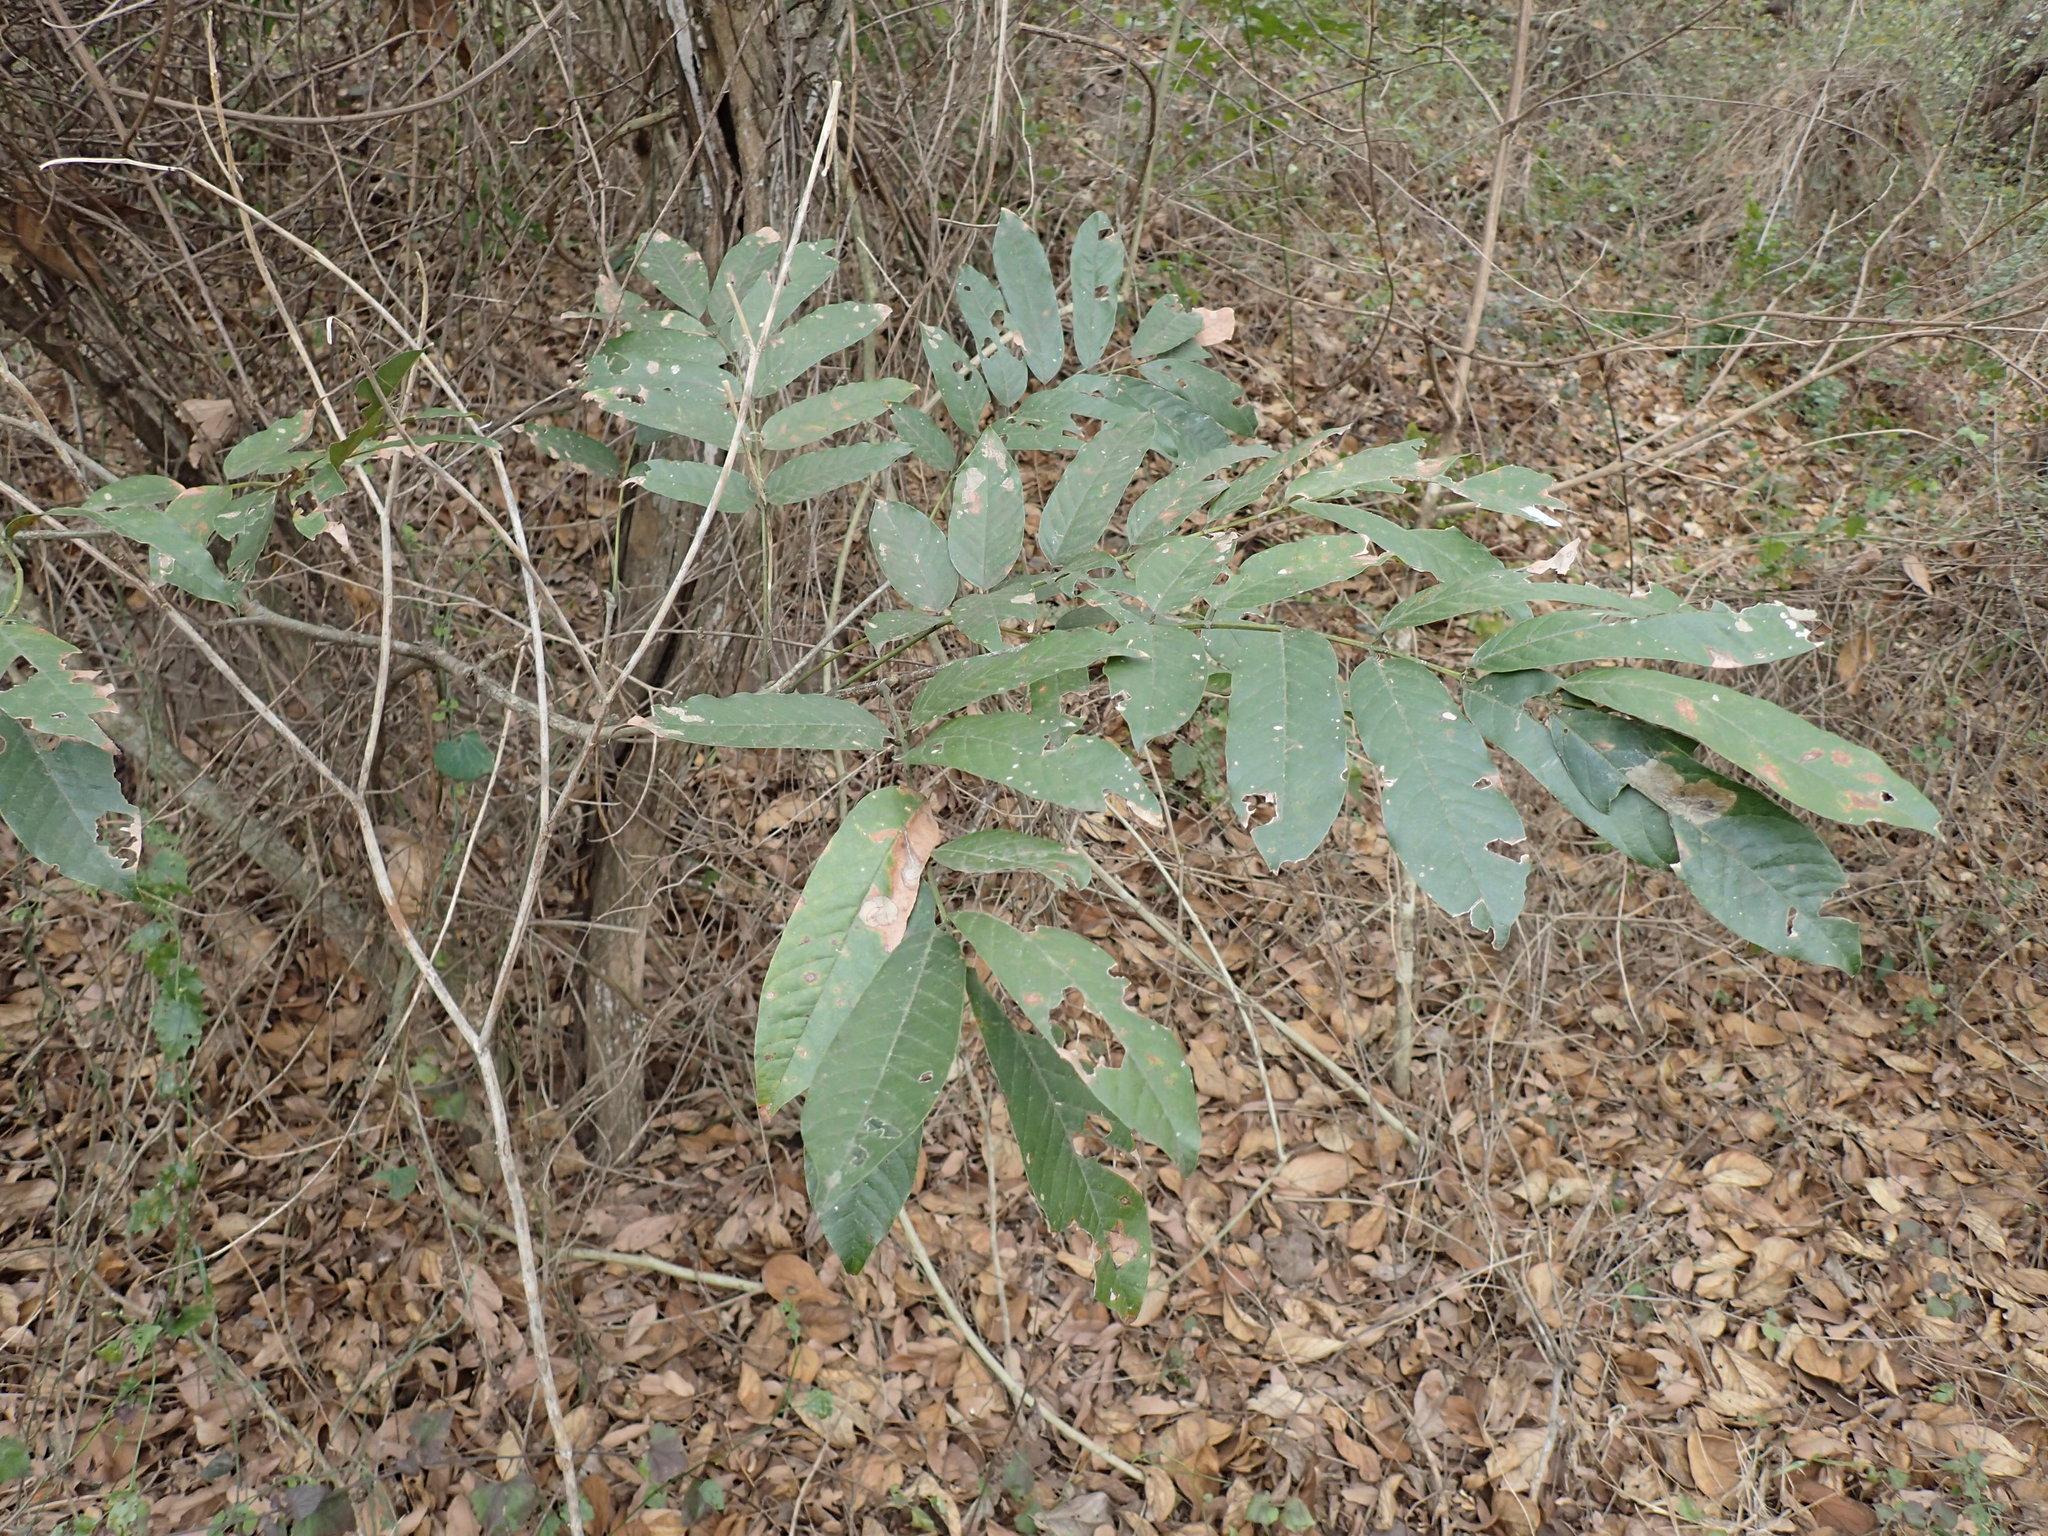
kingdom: Plantae
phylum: Tracheophyta
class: Magnoliopsida
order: Fabales
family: Fabaceae
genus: Millettia
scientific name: Millettia grandis
